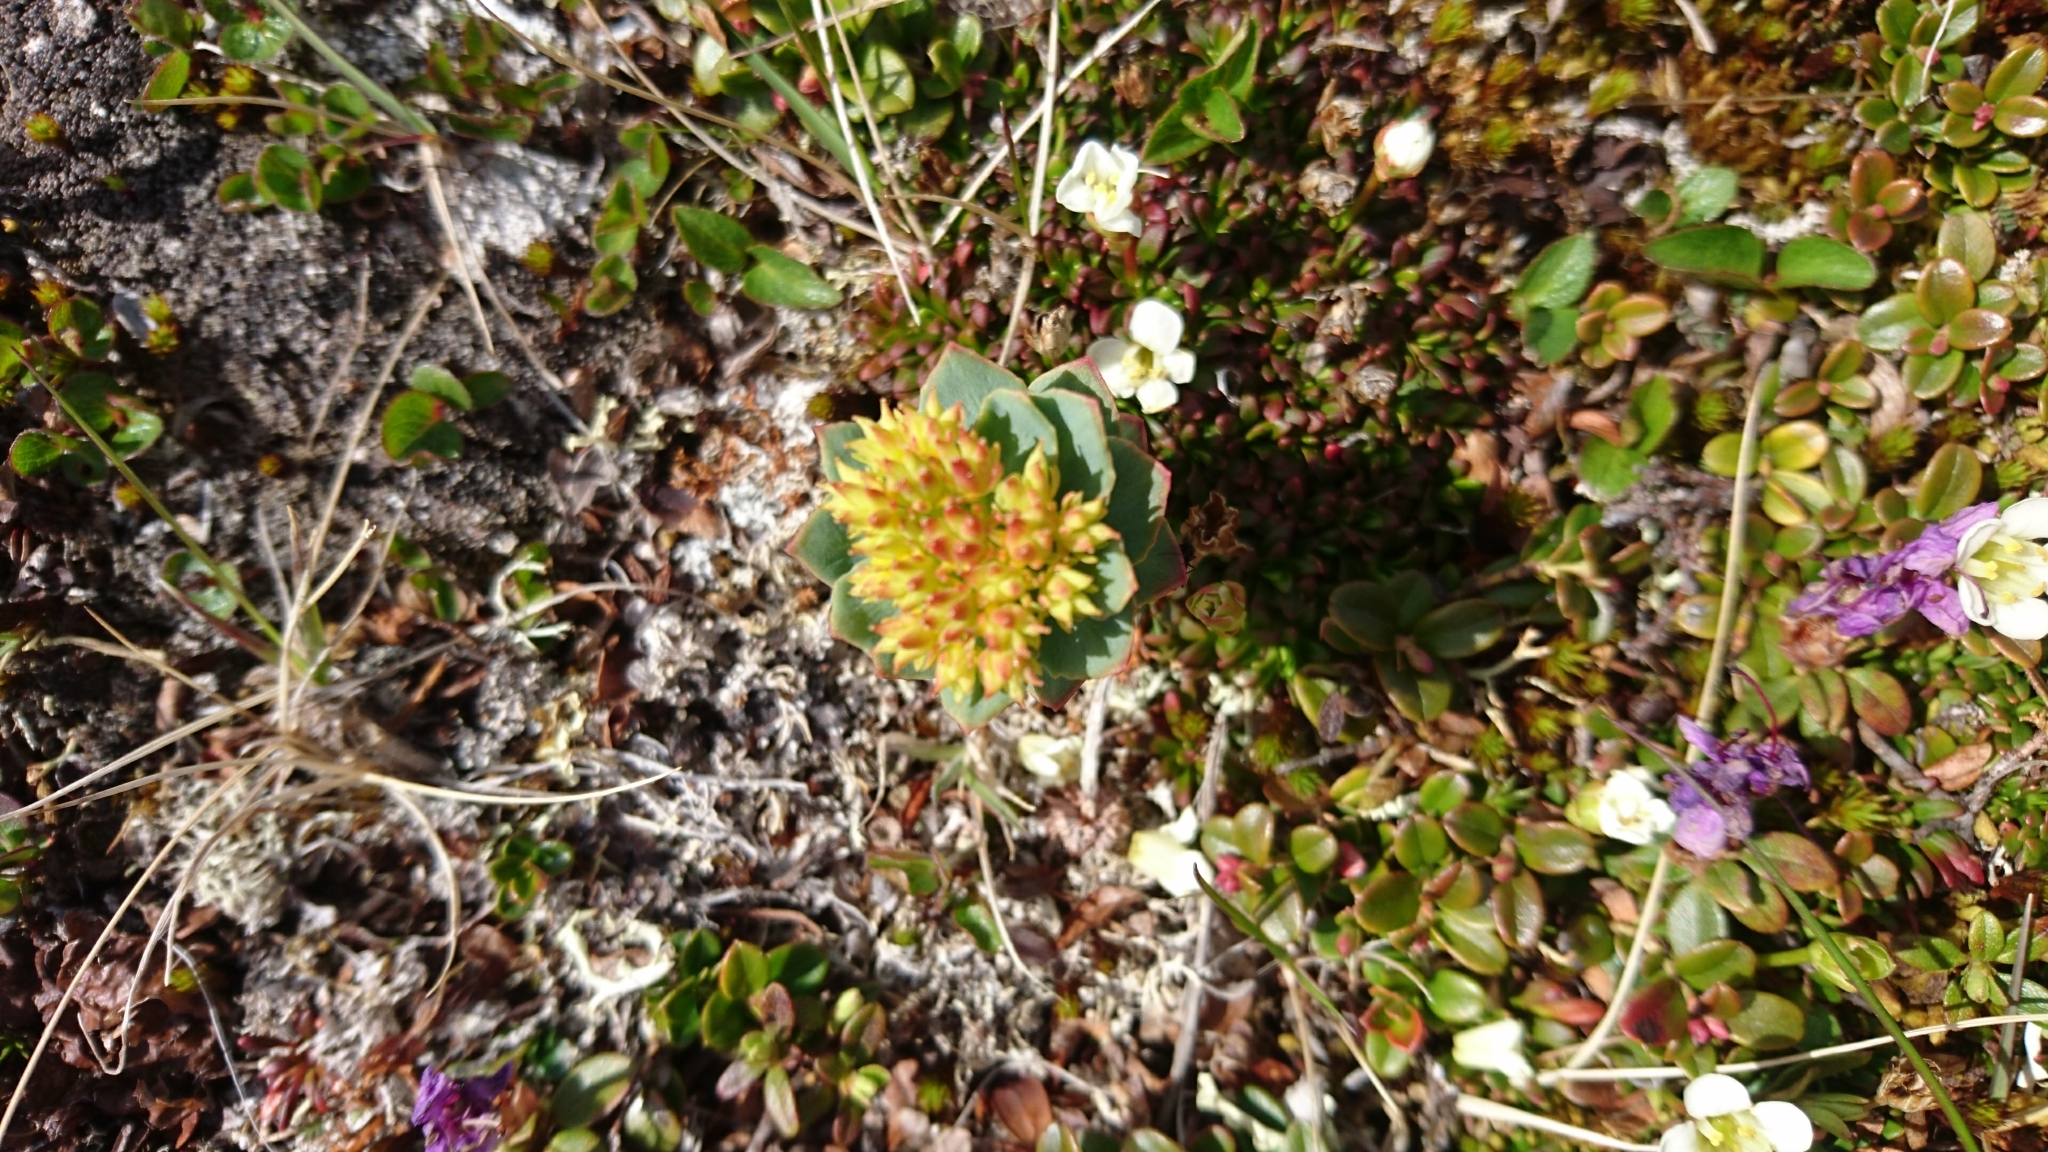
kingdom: Plantae
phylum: Tracheophyta
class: Magnoliopsida
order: Saxifragales
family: Crassulaceae
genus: Rhodiola
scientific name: Rhodiola rosea
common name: Roseroot
